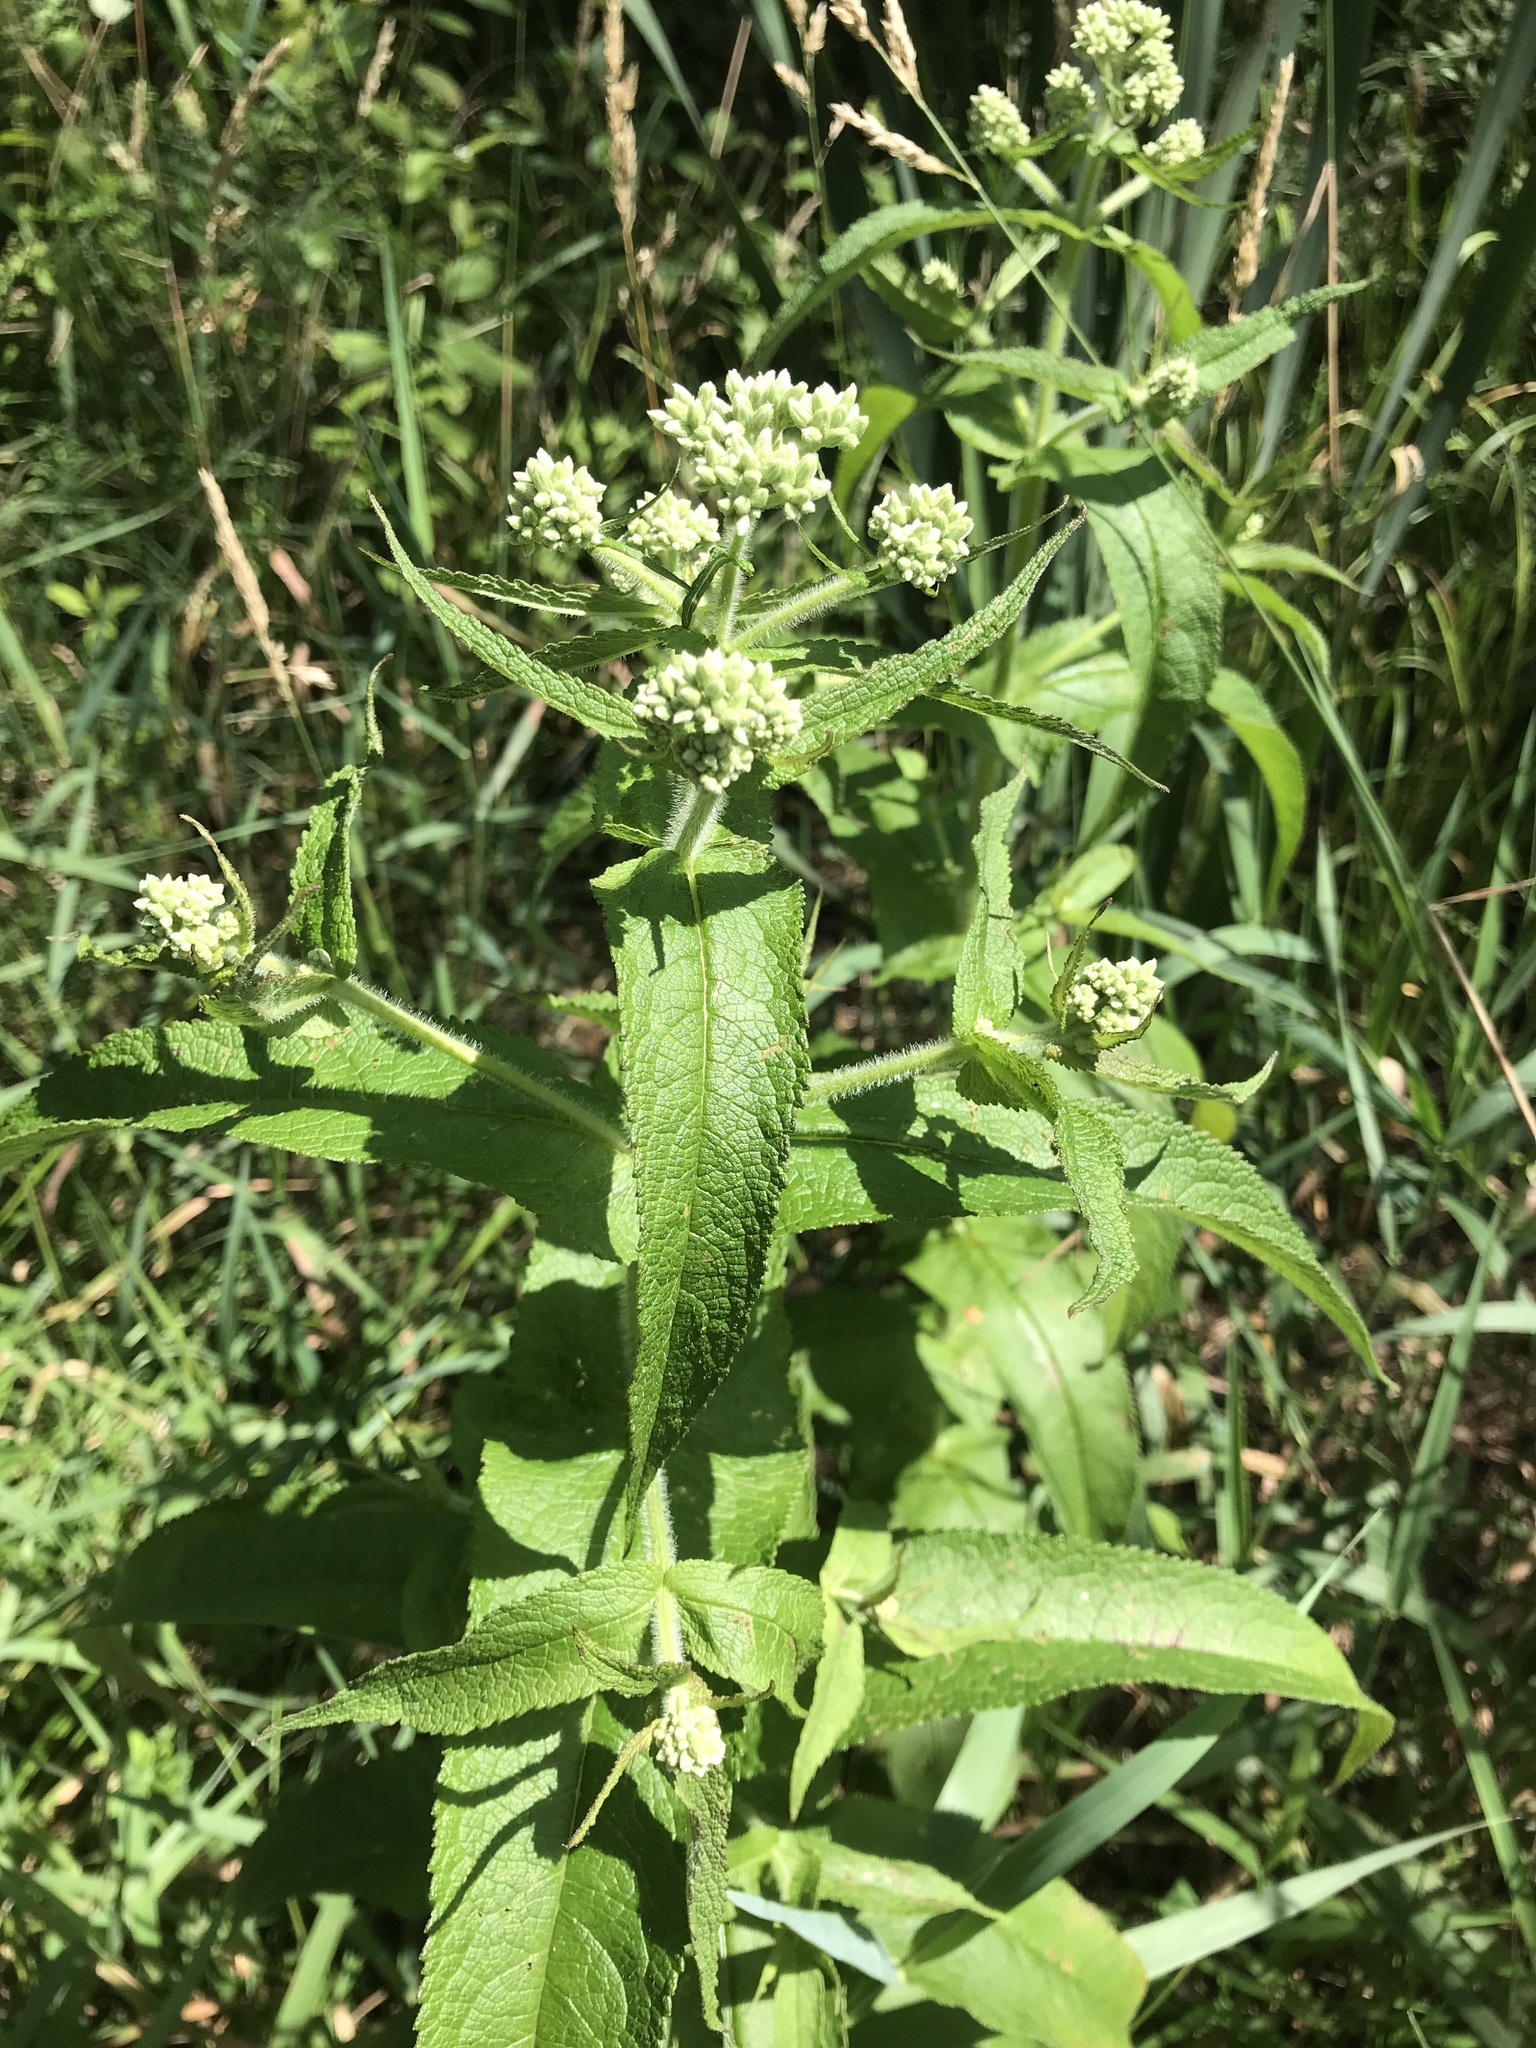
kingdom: Plantae
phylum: Tracheophyta
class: Magnoliopsida
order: Asterales
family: Asteraceae
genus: Eupatorium
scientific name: Eupatorium perfoliatum
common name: Boneset
